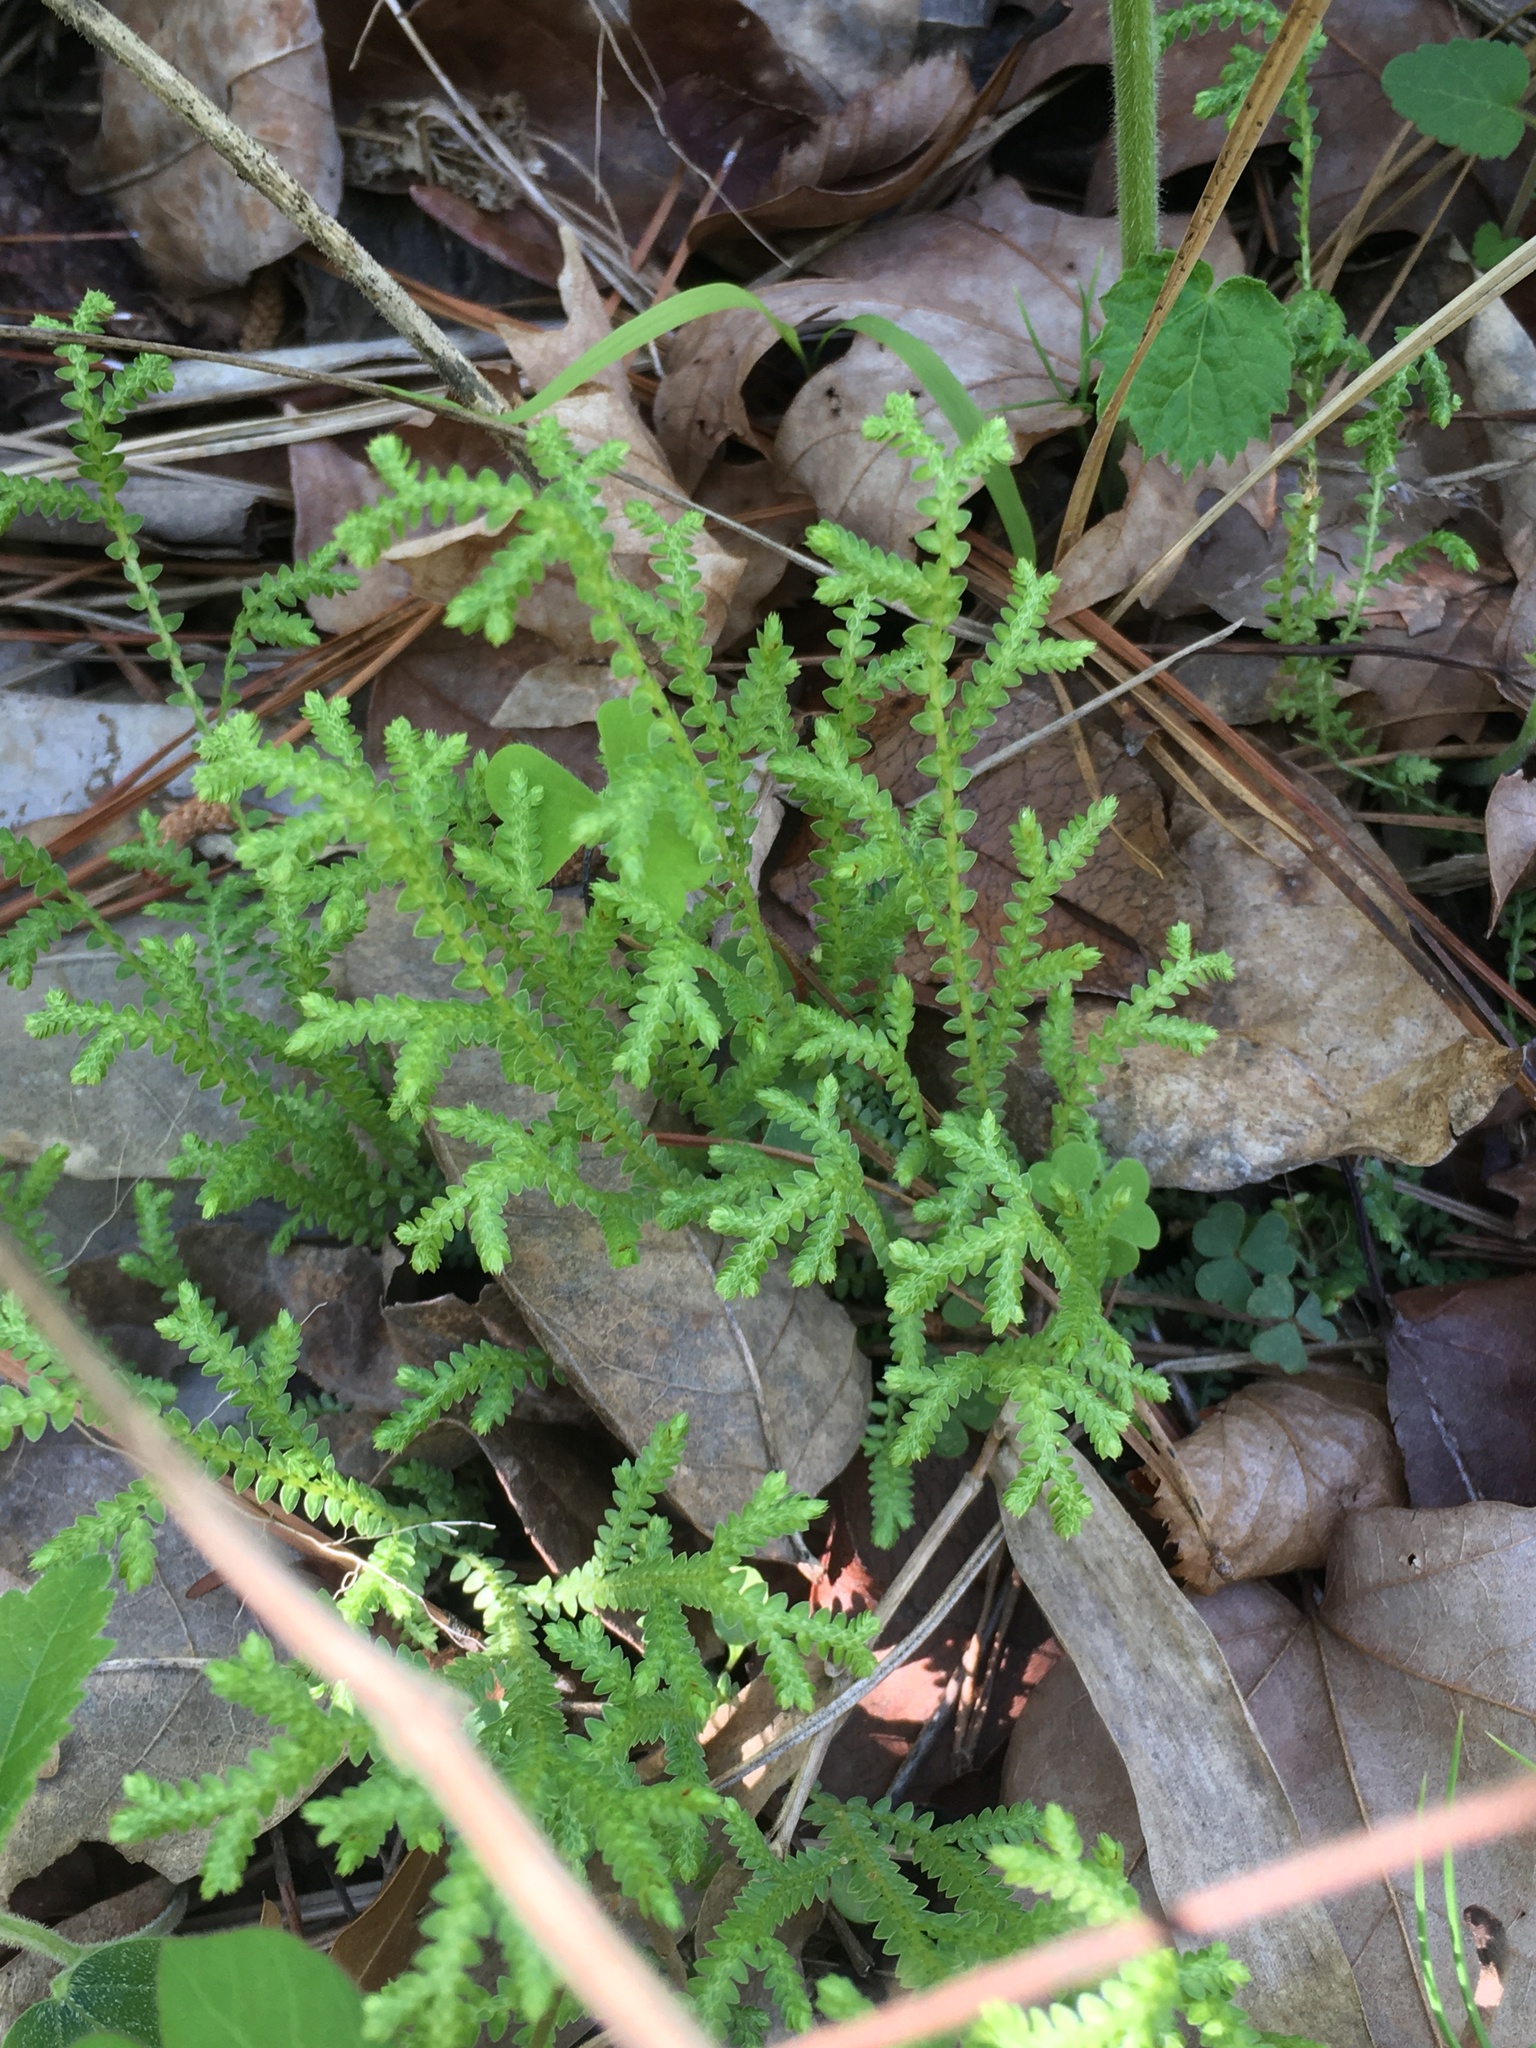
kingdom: Plantae
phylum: Tracheophyta
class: Lycopodiopsida
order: Selaginellales
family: Selaginellaceae
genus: Selaginella
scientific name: Selaginella ludoviciana
